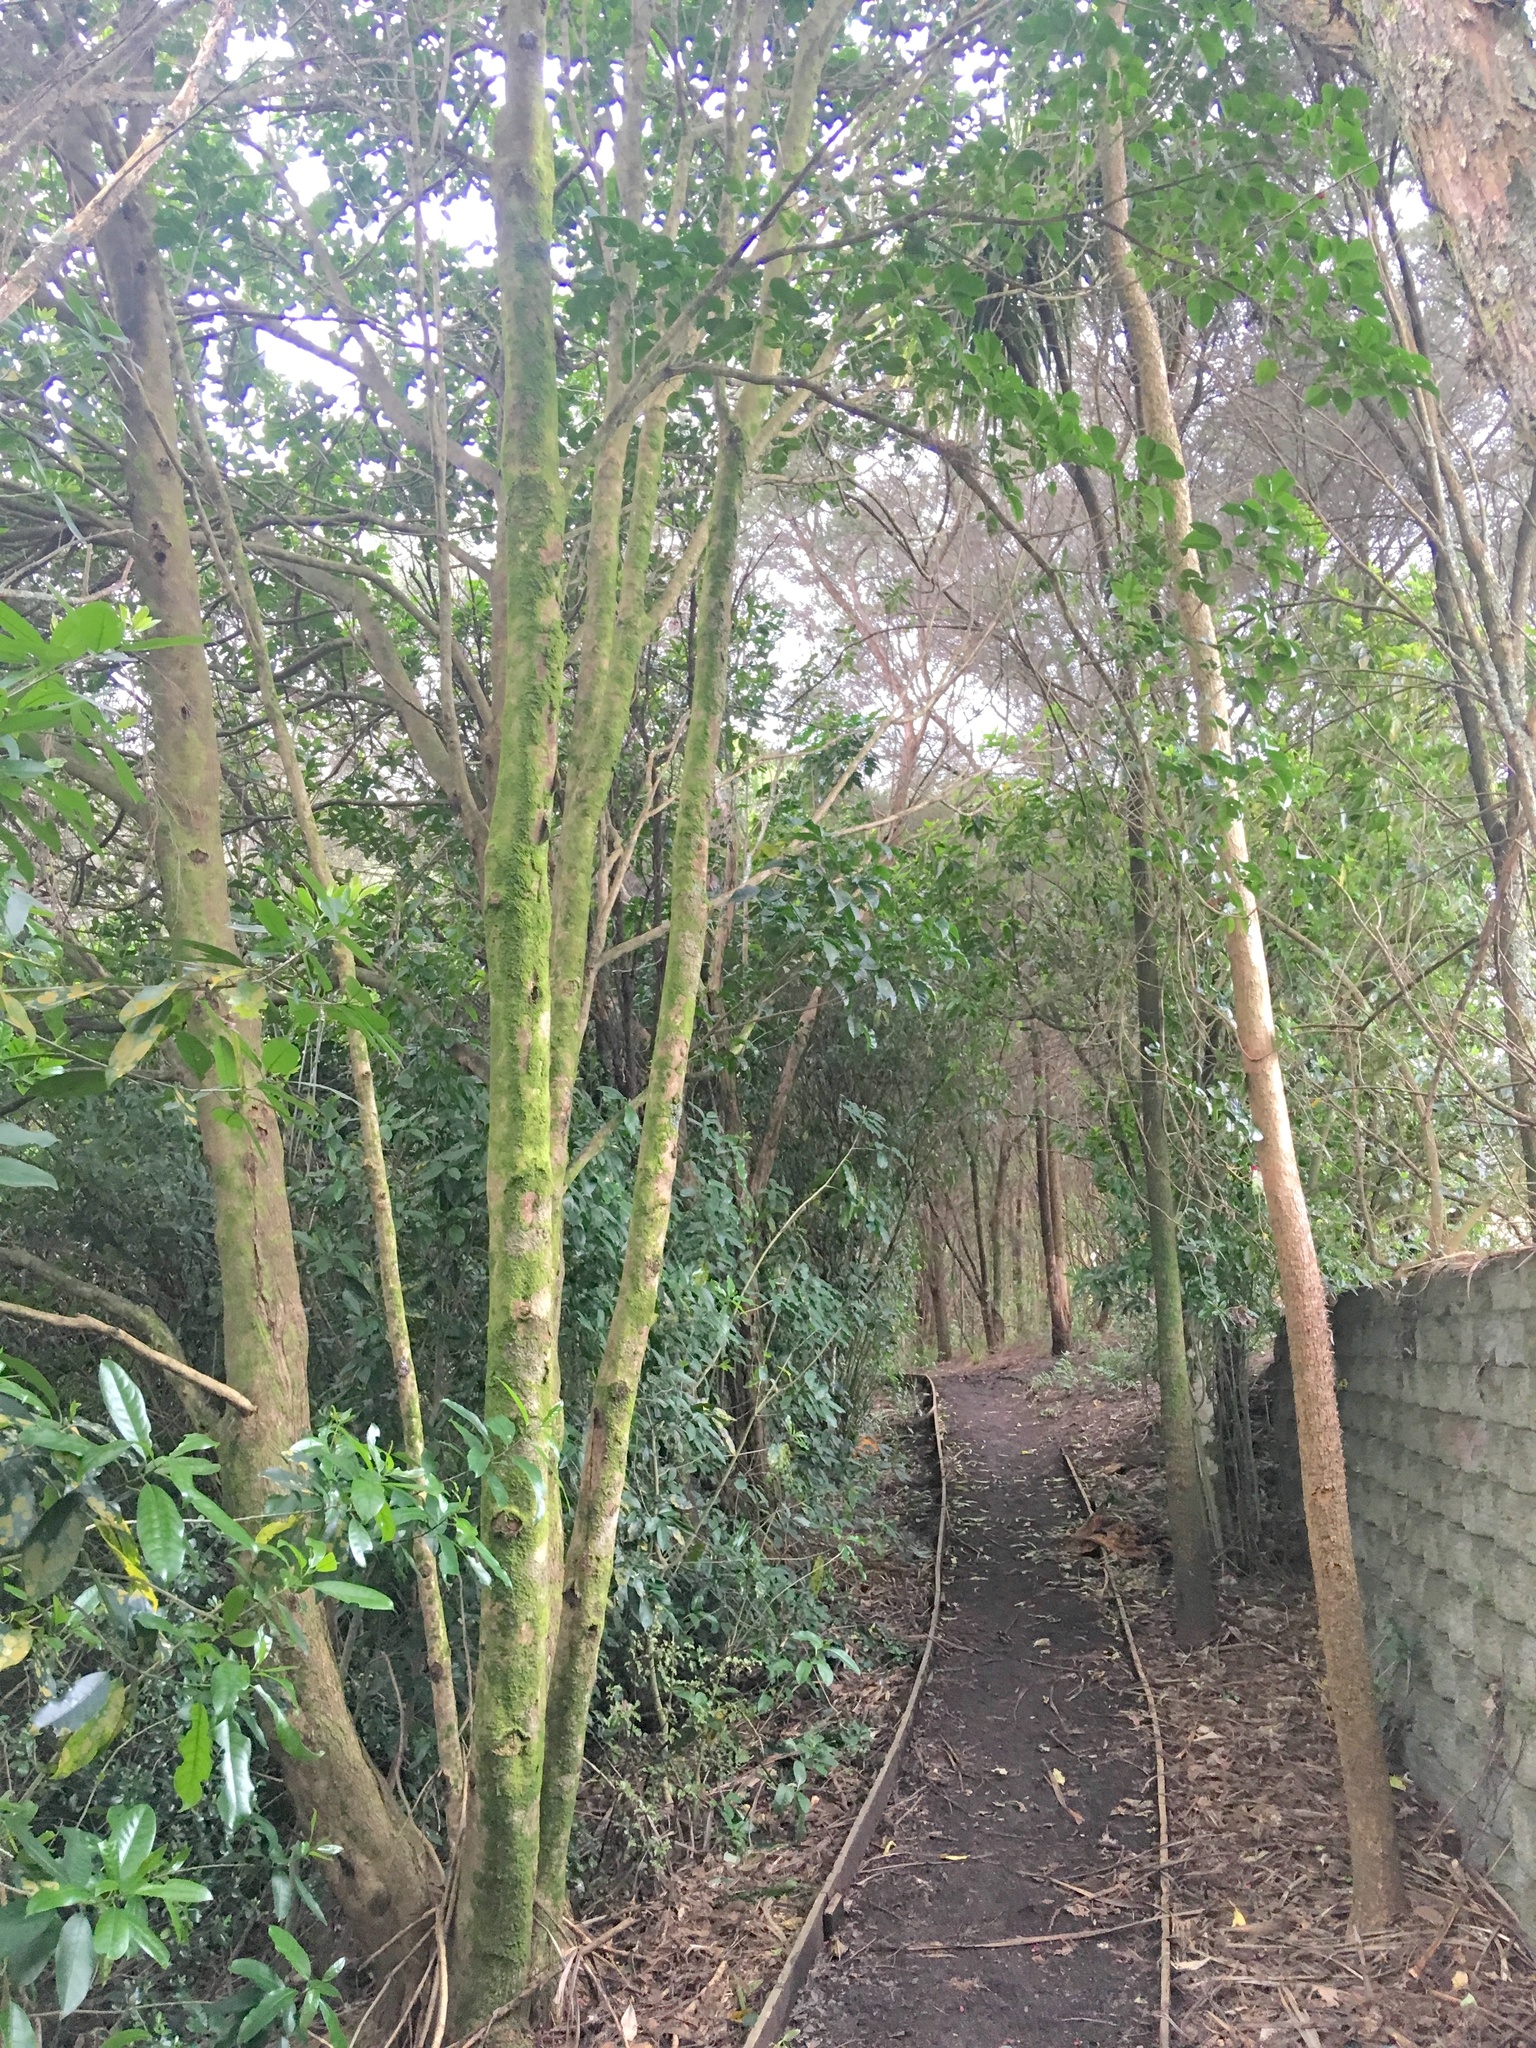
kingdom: Plantae
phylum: Tracheophyta
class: Magnoliopsida
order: Lamiales
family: Lamiaceae
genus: Vitex
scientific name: Vitex lucens
